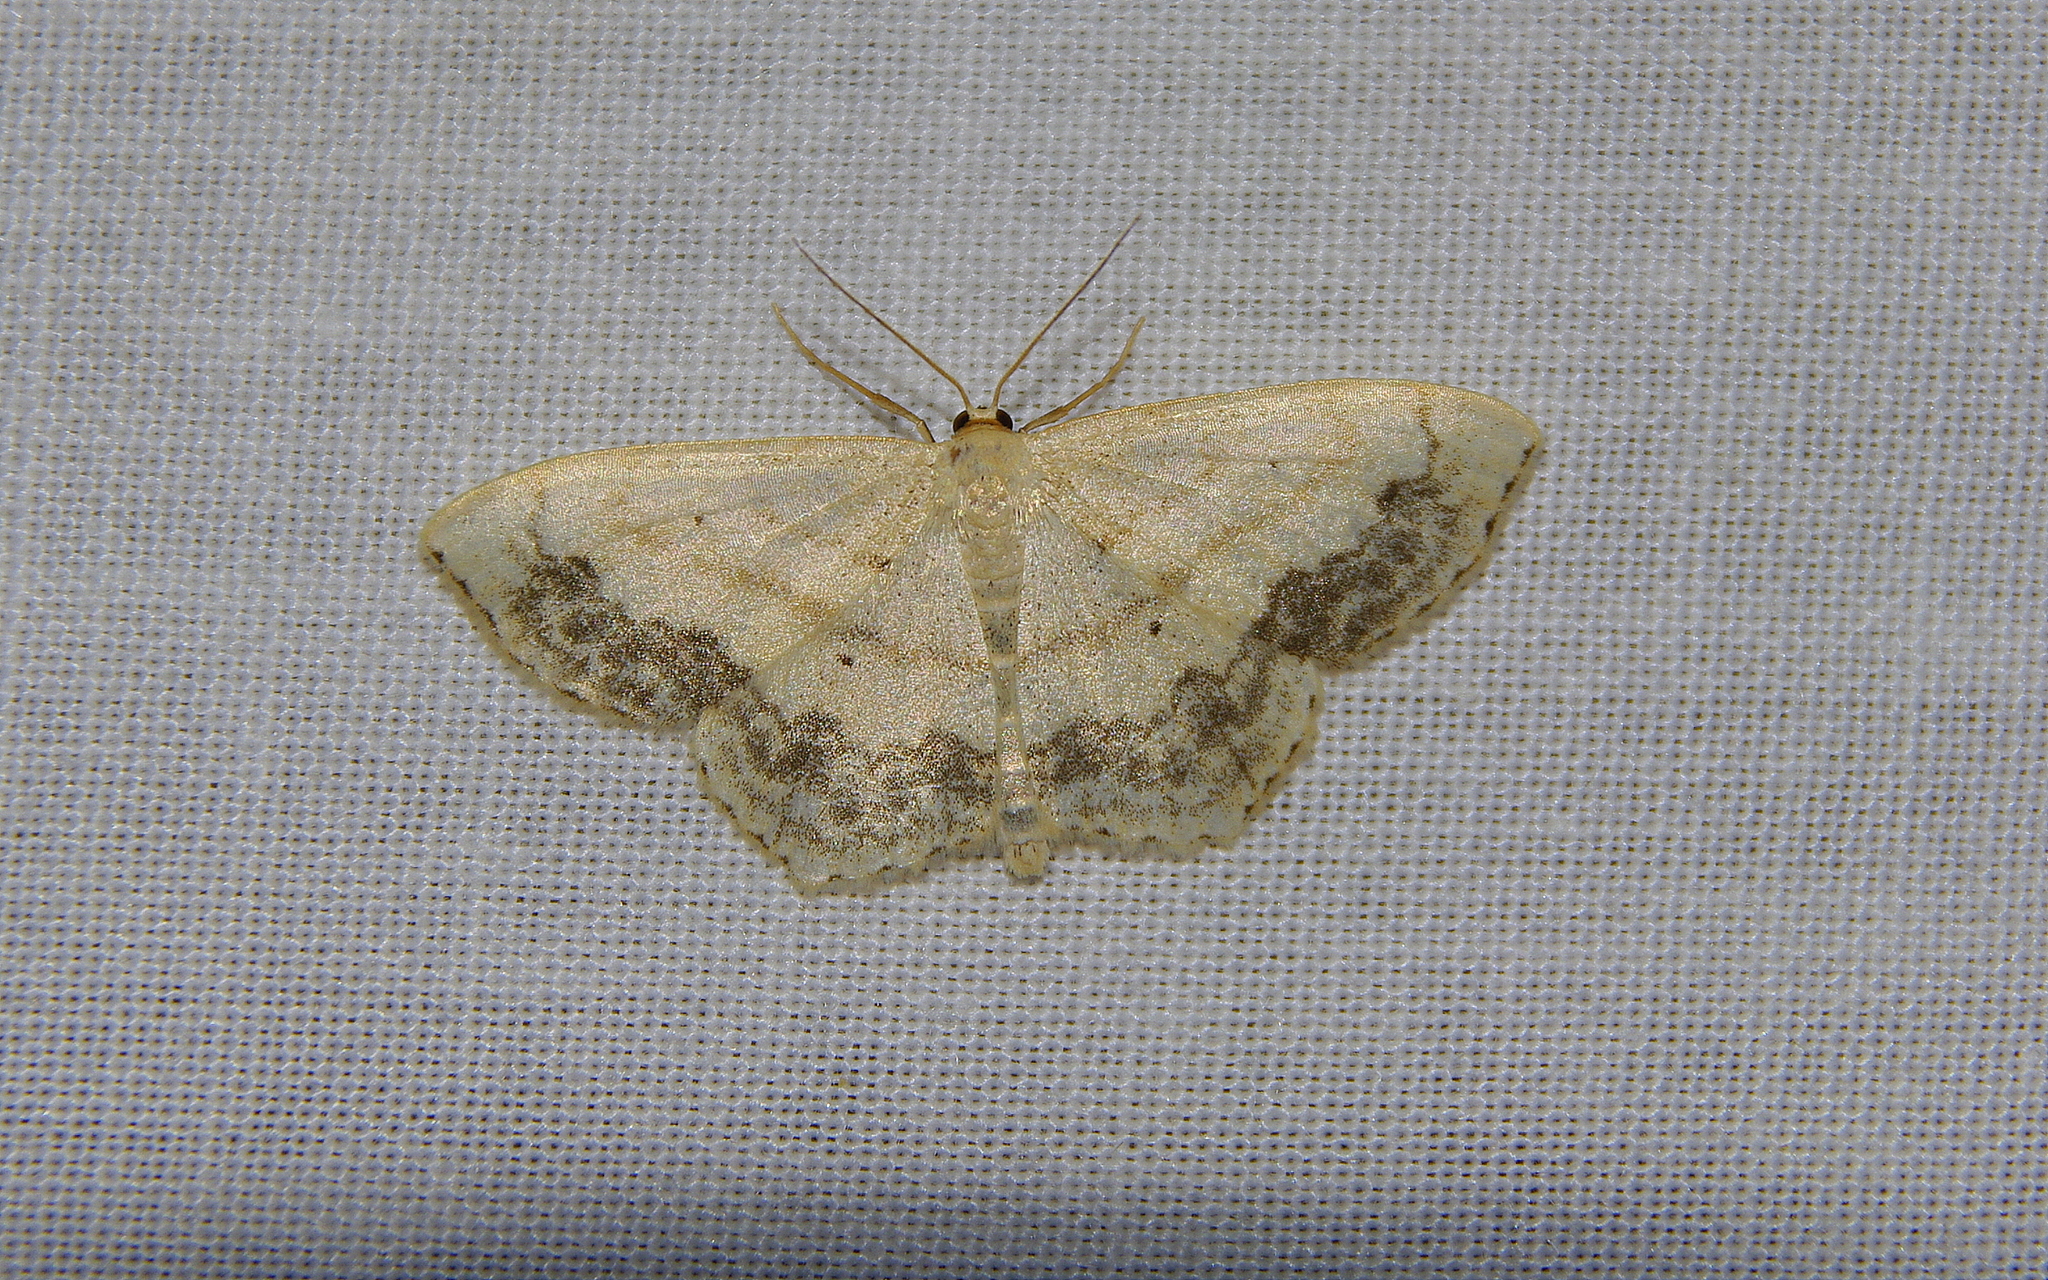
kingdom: Animalia
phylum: Arthropoda
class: Insecta
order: Lepidoptera
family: Geometridae
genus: Scopula
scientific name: Scopula limboundata
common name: Large lace border
